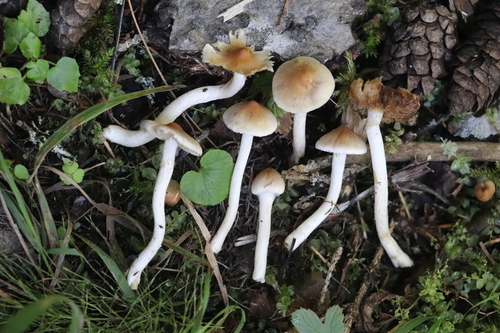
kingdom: Fungi
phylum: Basidiomycota
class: Agaricomycetes
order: Agaricales
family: Inocybaceae
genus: Inocybe
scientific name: Inocybe
